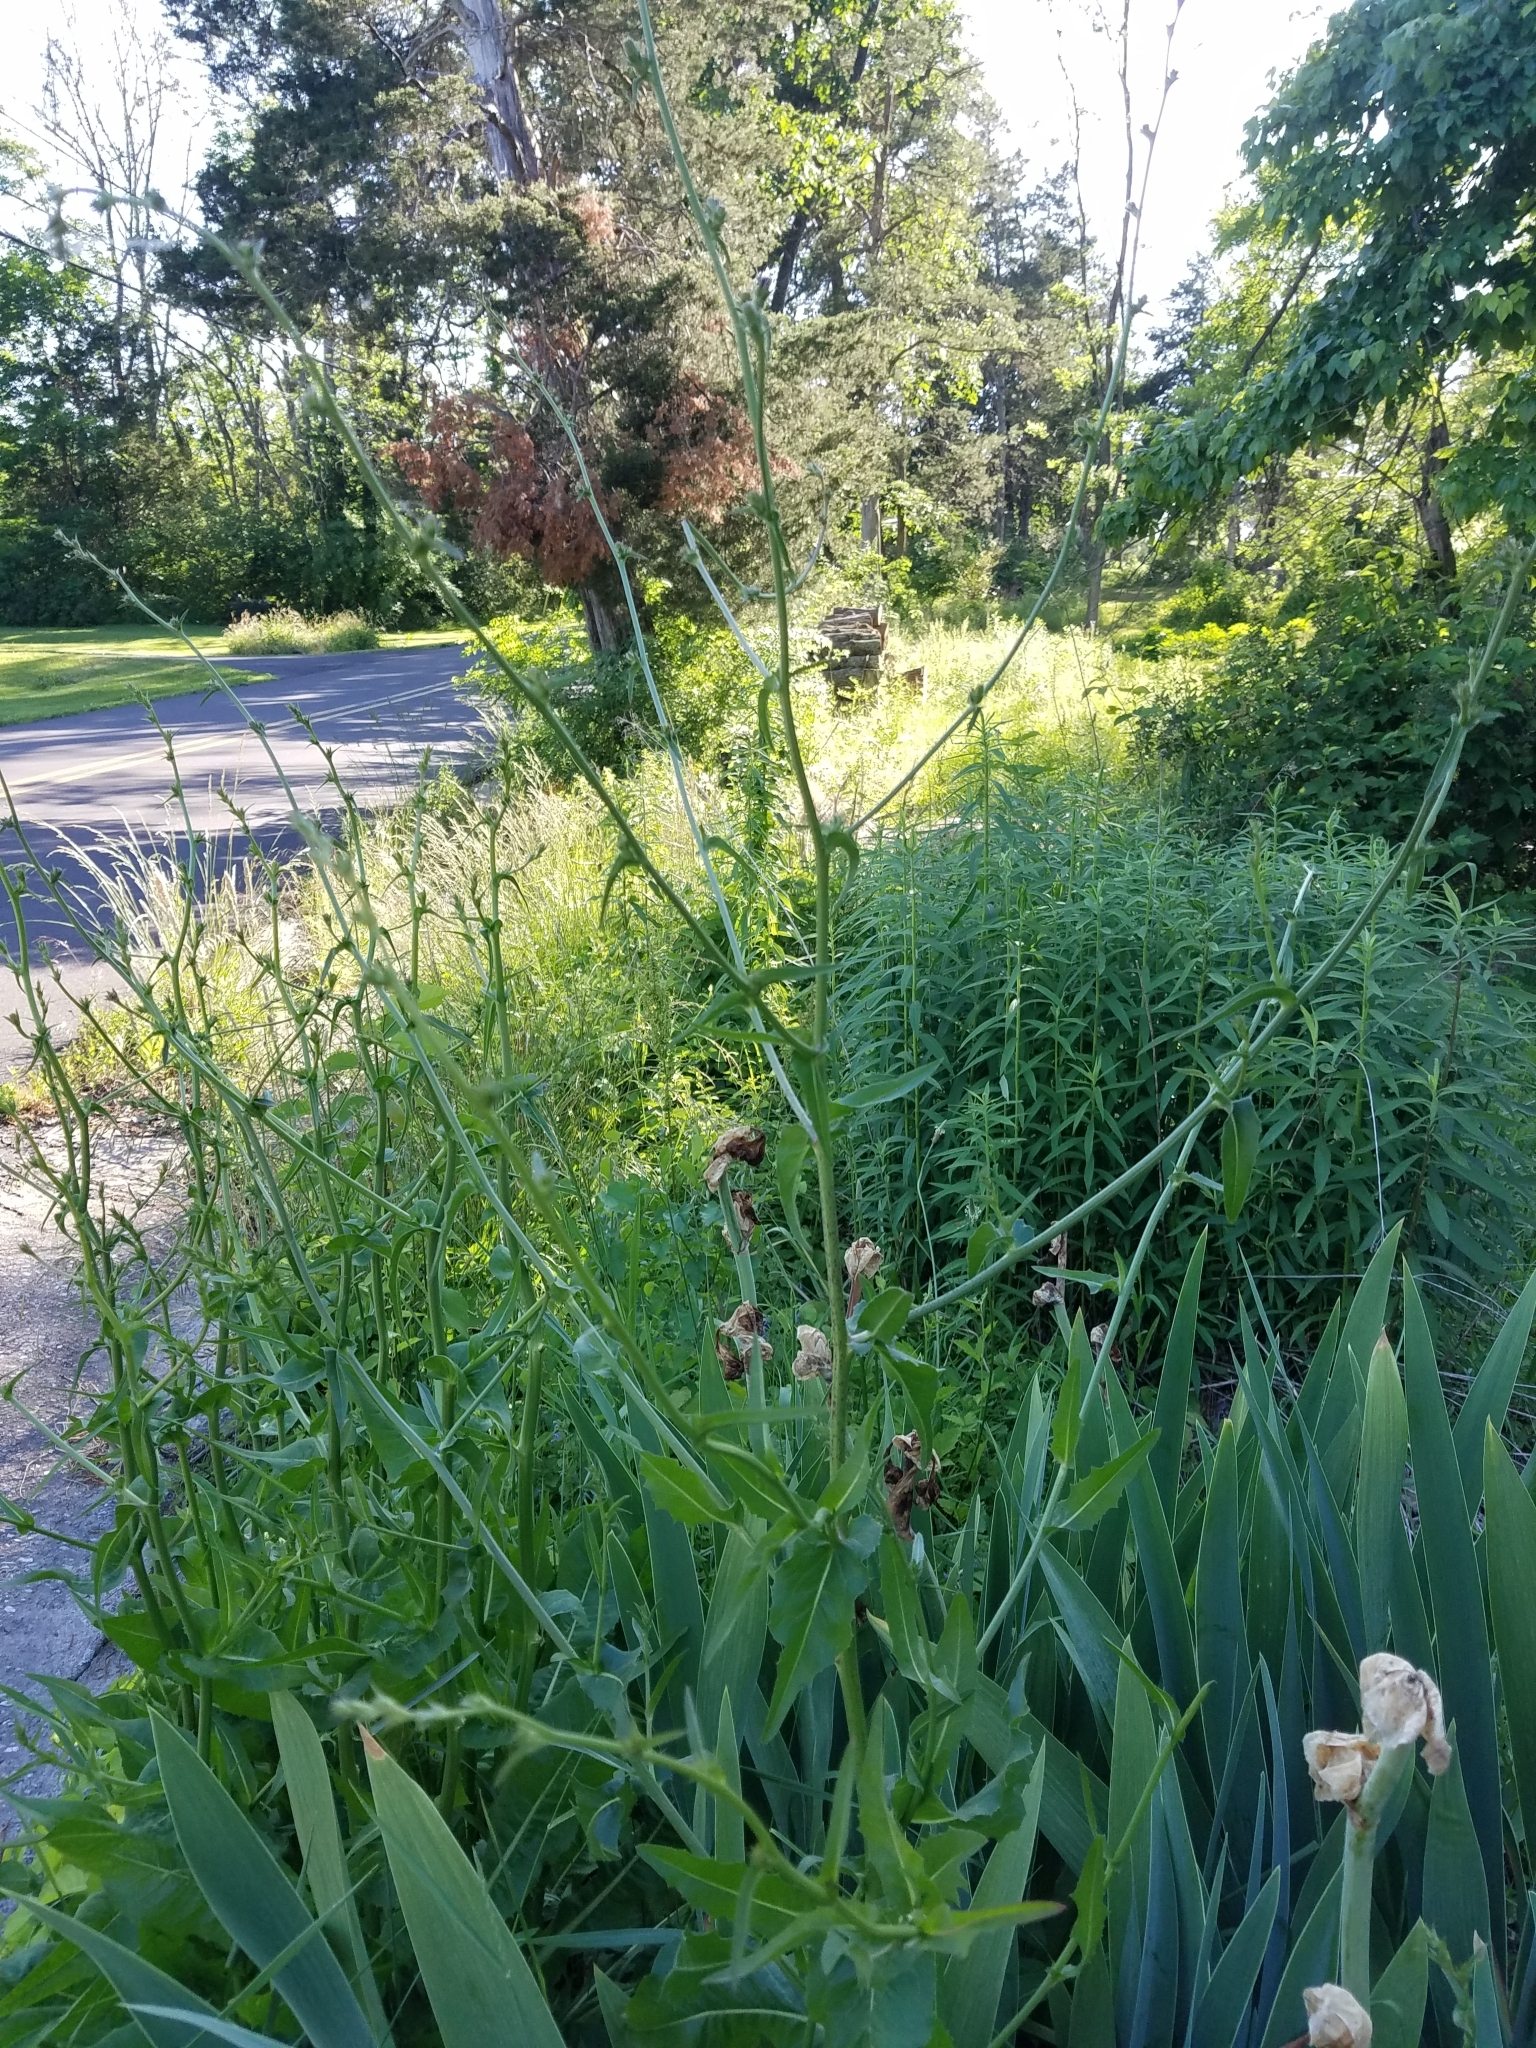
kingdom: Plantae
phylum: Tracheophyta
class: Magnoliopsida
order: Asterales
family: Asteraceae
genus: Cichorium
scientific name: Cichorium intybus
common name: Chicory
